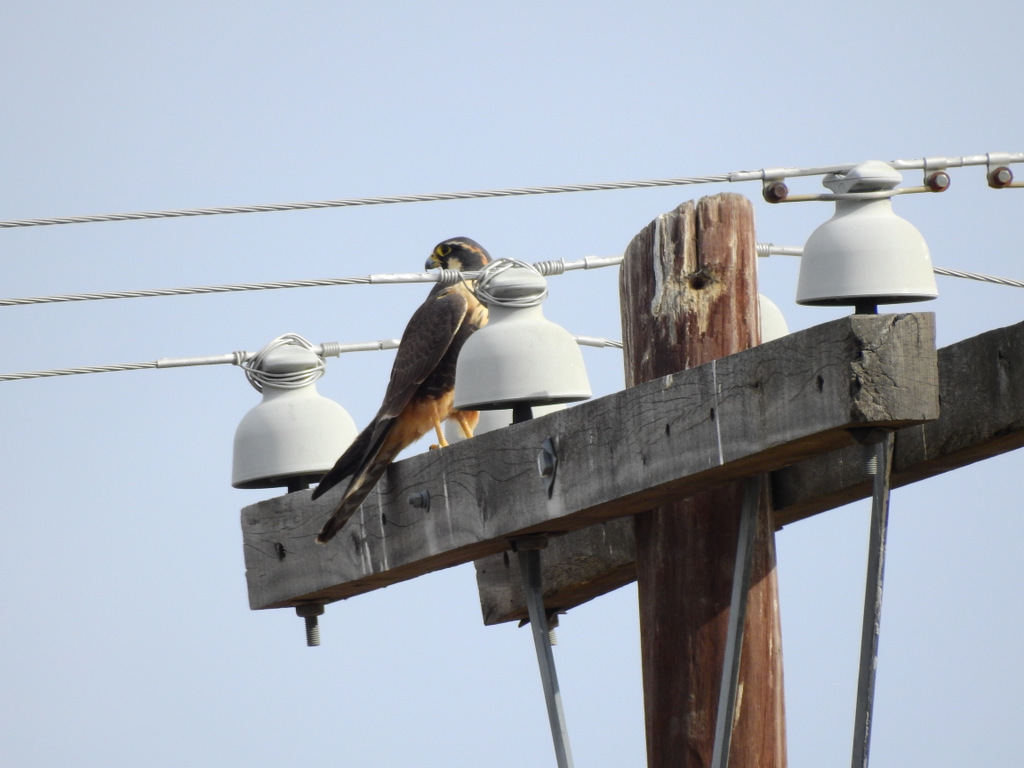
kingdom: Animalia
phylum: Chordata
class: Aves
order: Falconiformes
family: Falconidae
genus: Falco
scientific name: Falco femoralis
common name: Aplomado falcon
